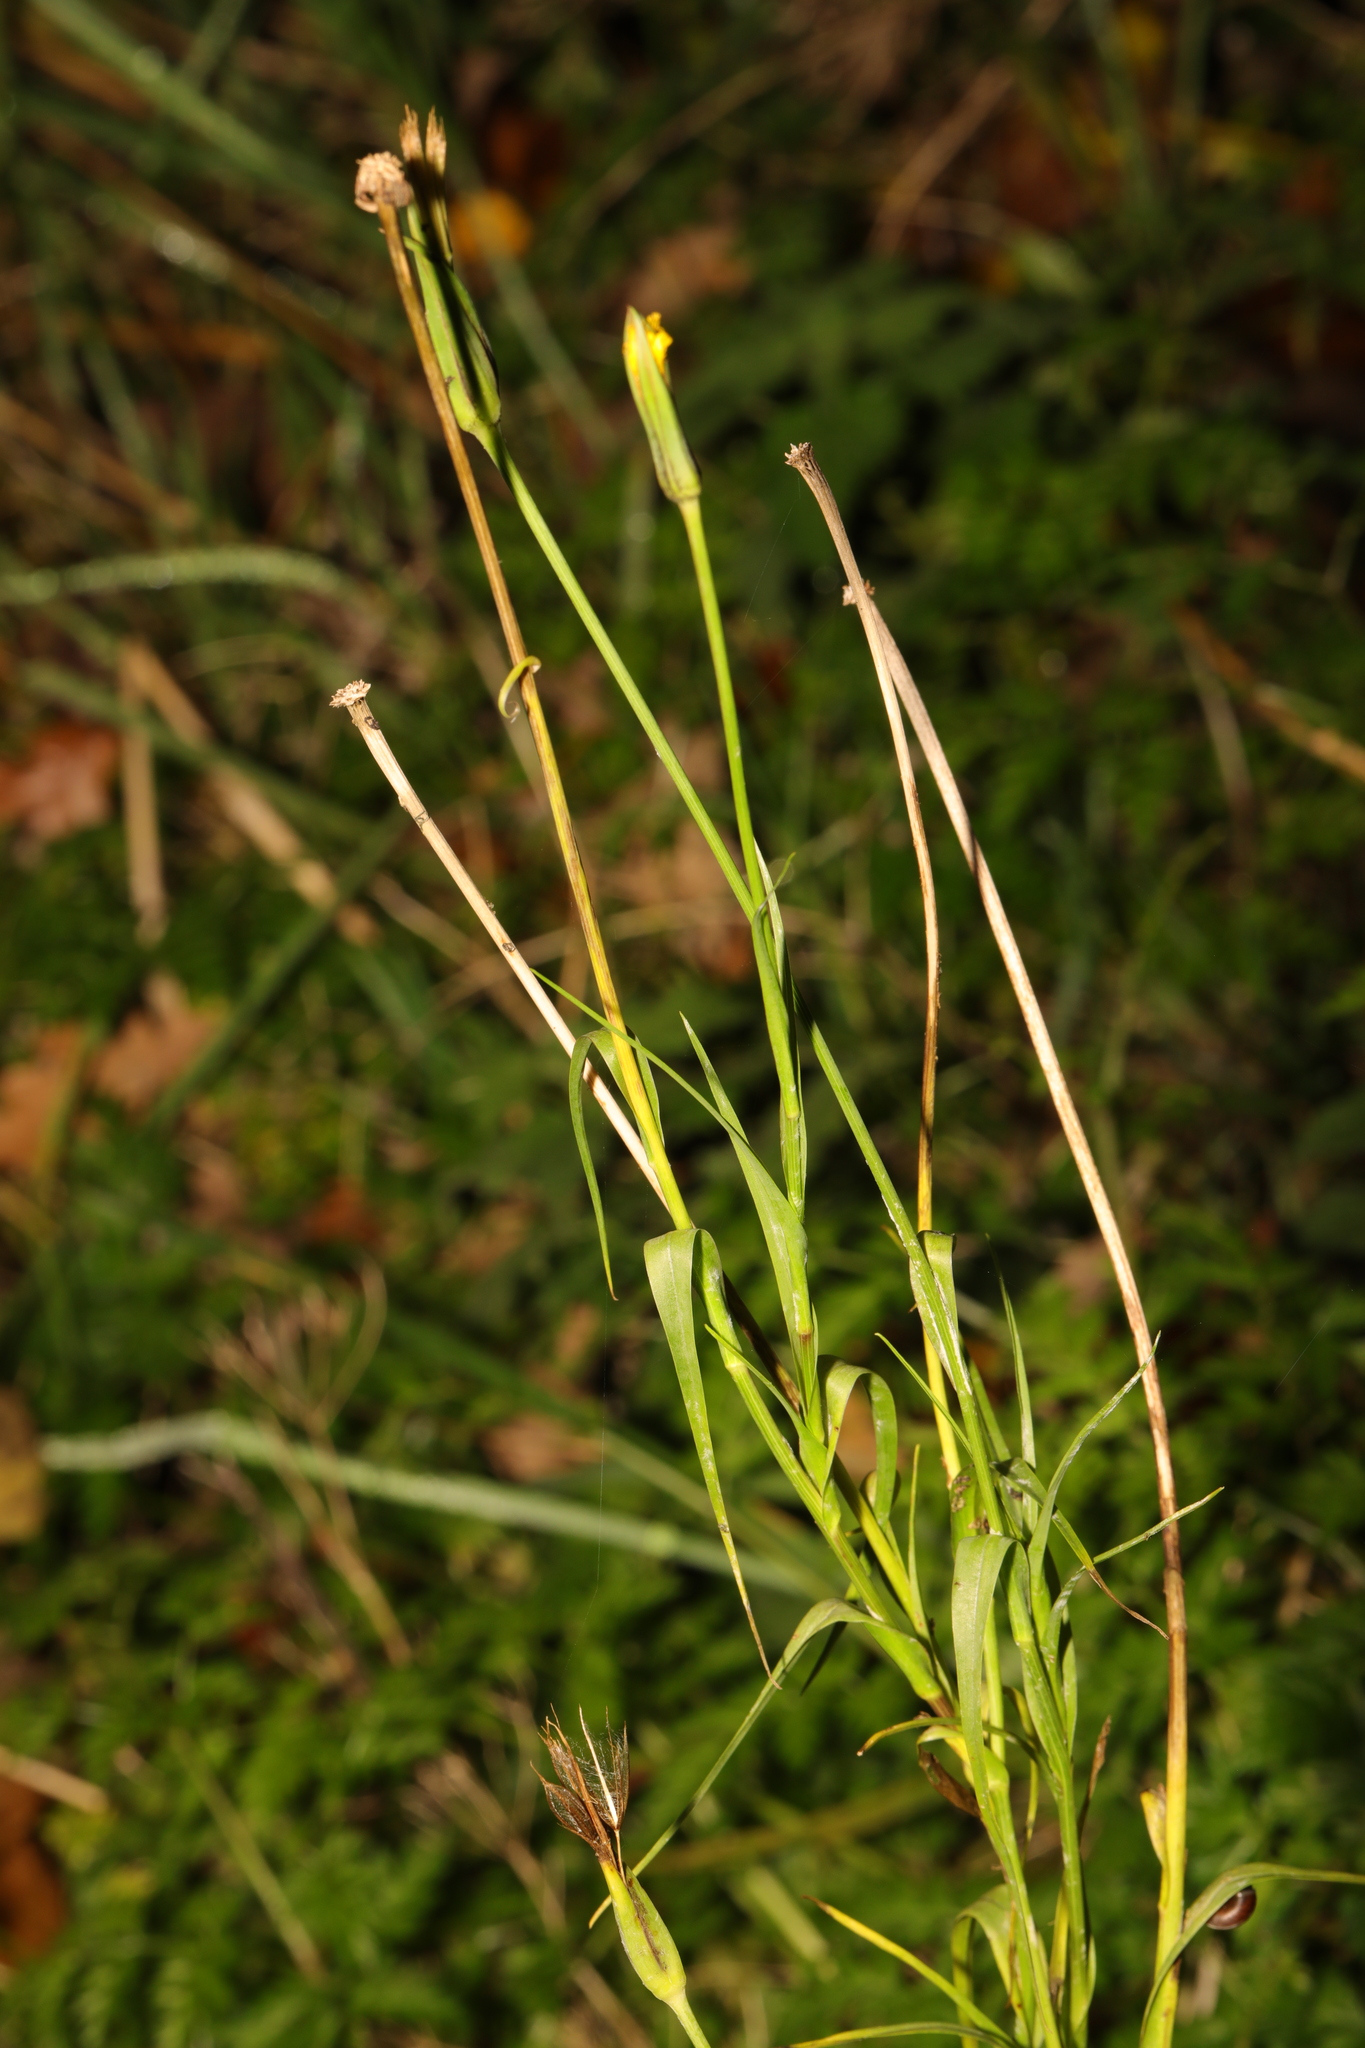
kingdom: Plantae
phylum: Tracheophyta
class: Magnoliopsida
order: Asterales
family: Asteraceae
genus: Tragopogon
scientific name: Tragopogon pratensis
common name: Goat's-beard
